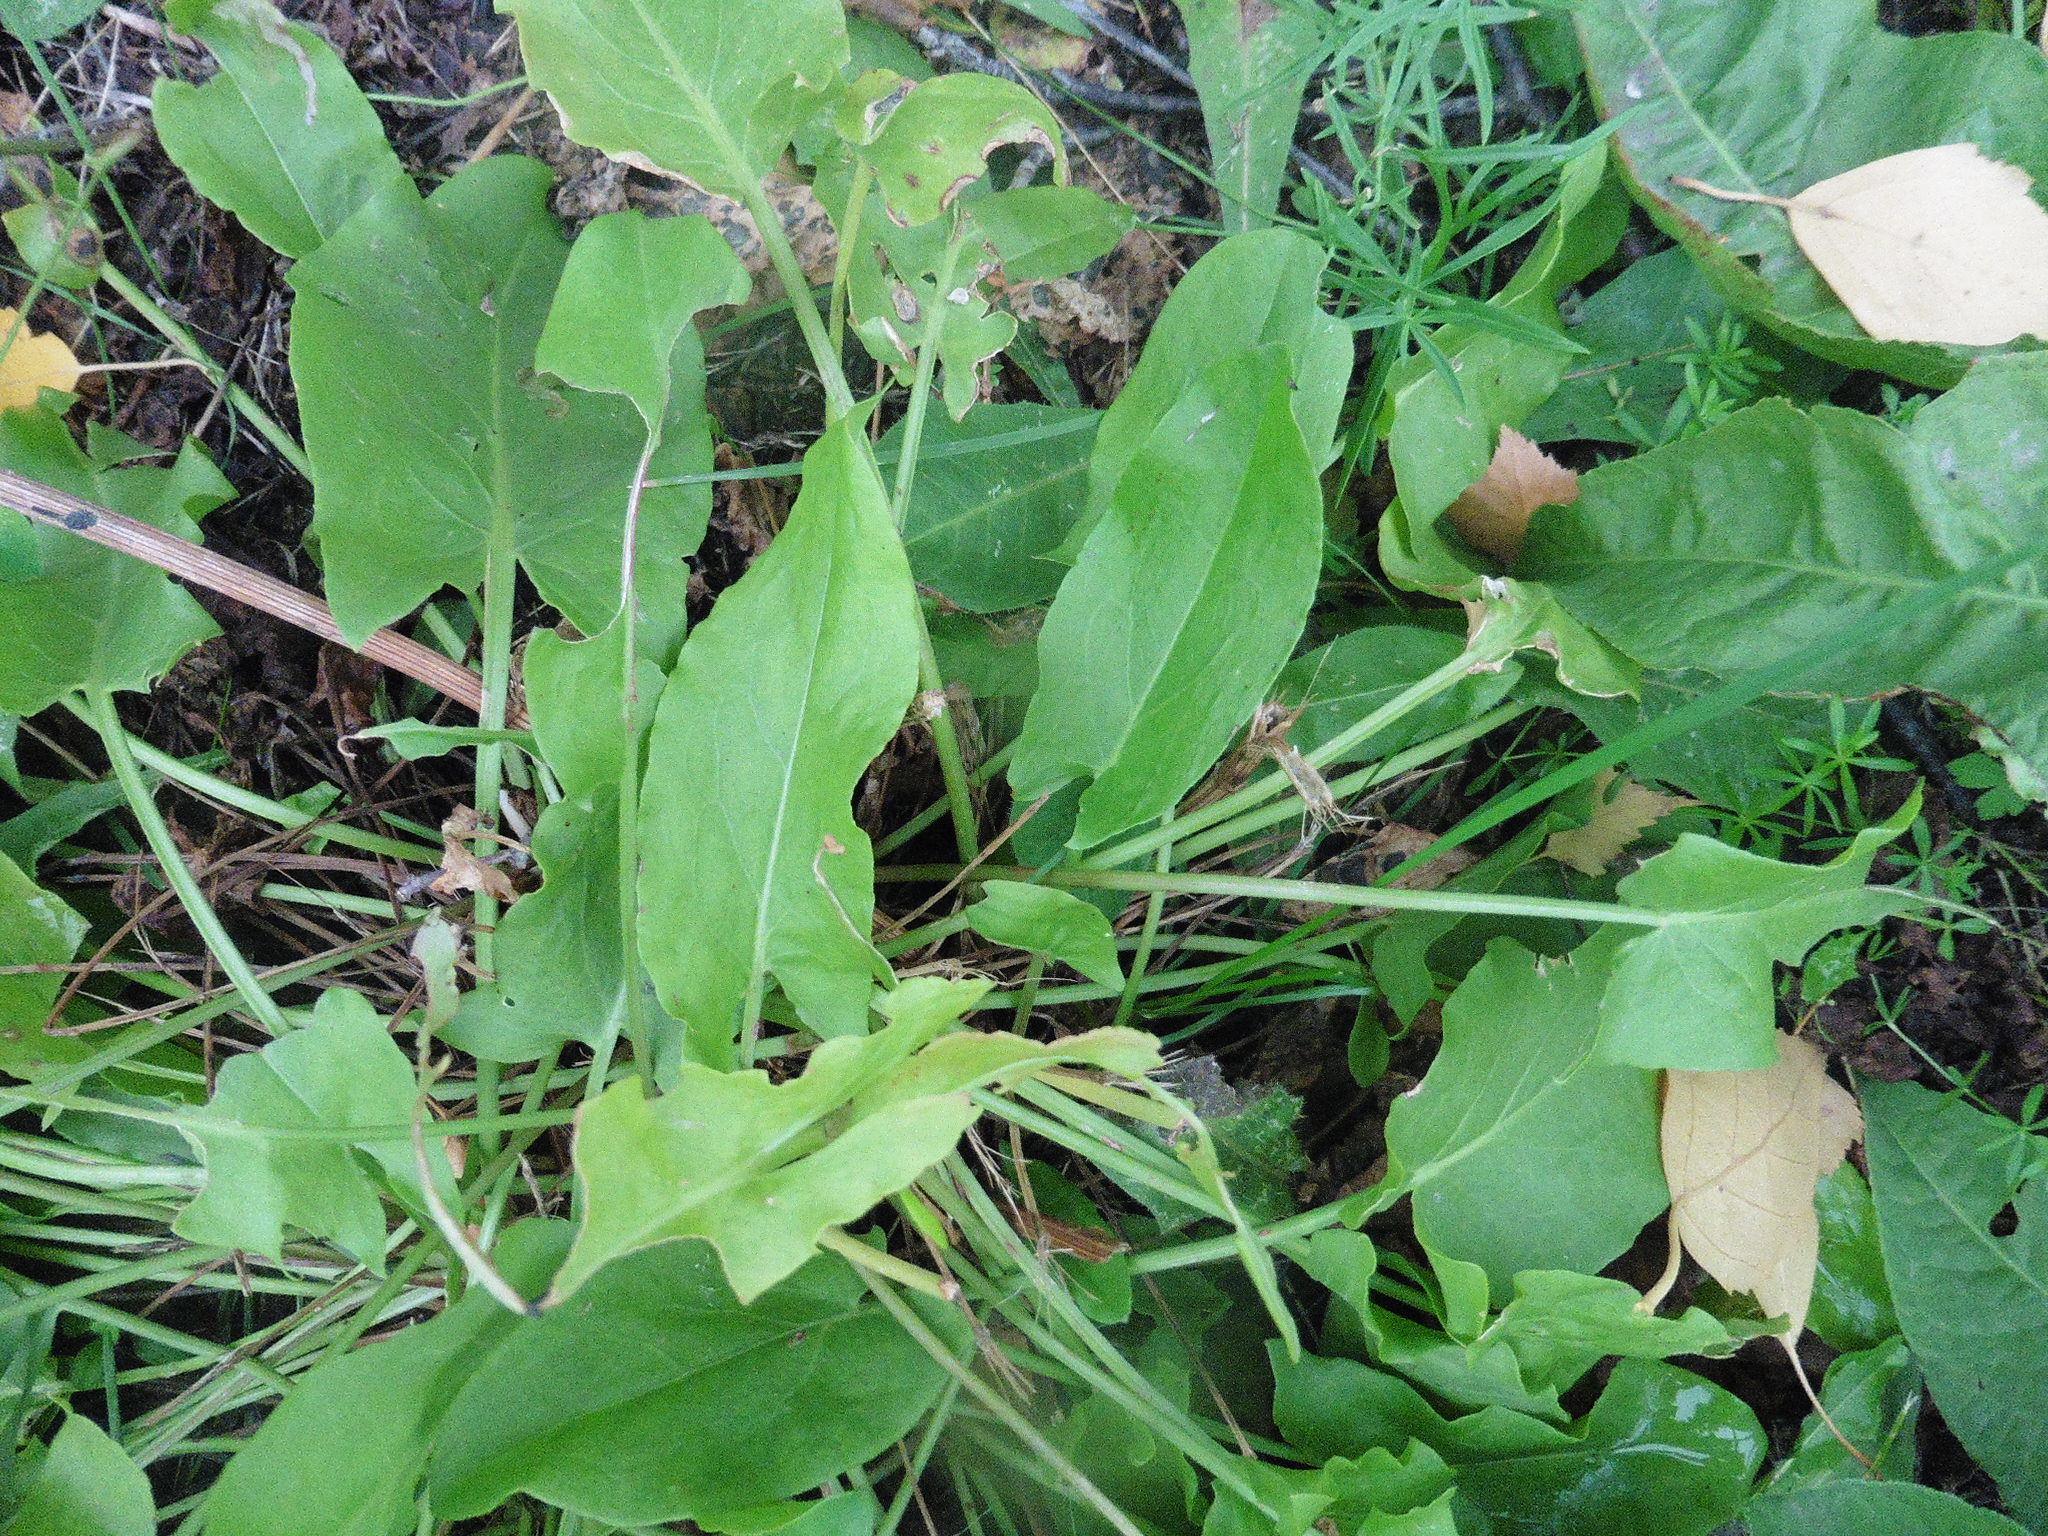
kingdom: Plantae
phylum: Tracheophyta
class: Magnoliopsida
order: Caryophyllales
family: Polygonaceae
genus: Rumex
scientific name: Rumex acetosa
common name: Garden sorrel
